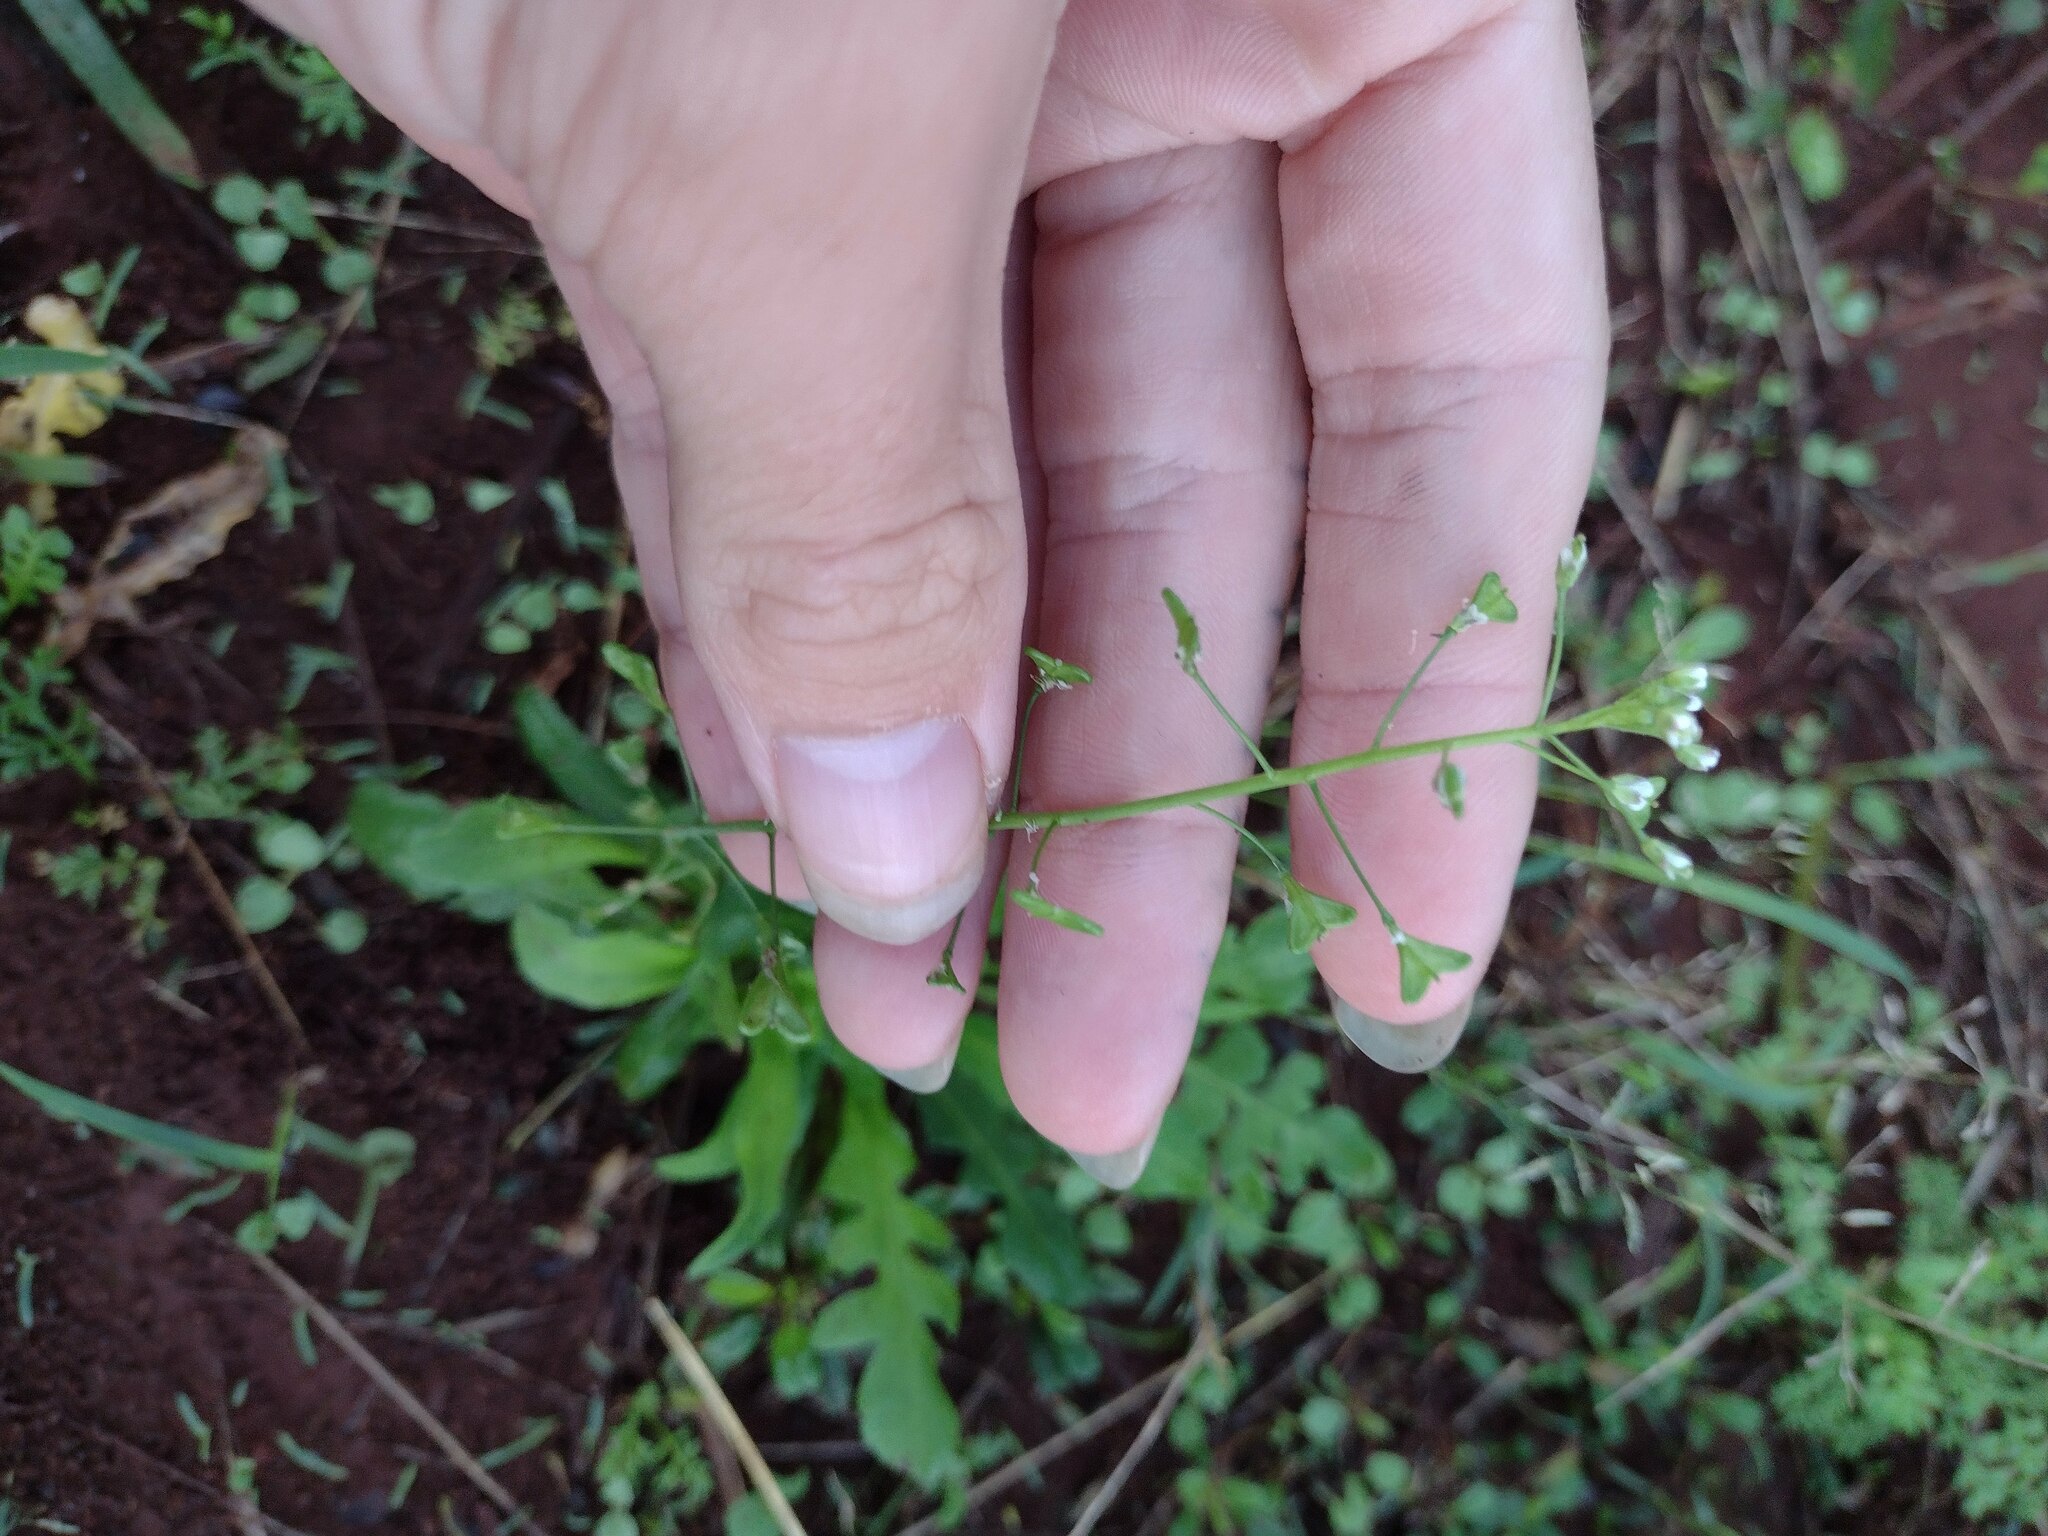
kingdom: Plantae
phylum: Tracheophyta
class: Magnoliopsida
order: Brassicales
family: Brassicaceae
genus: Capsella
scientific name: Capsella bursa-pastoris
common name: Shepherd's purse
